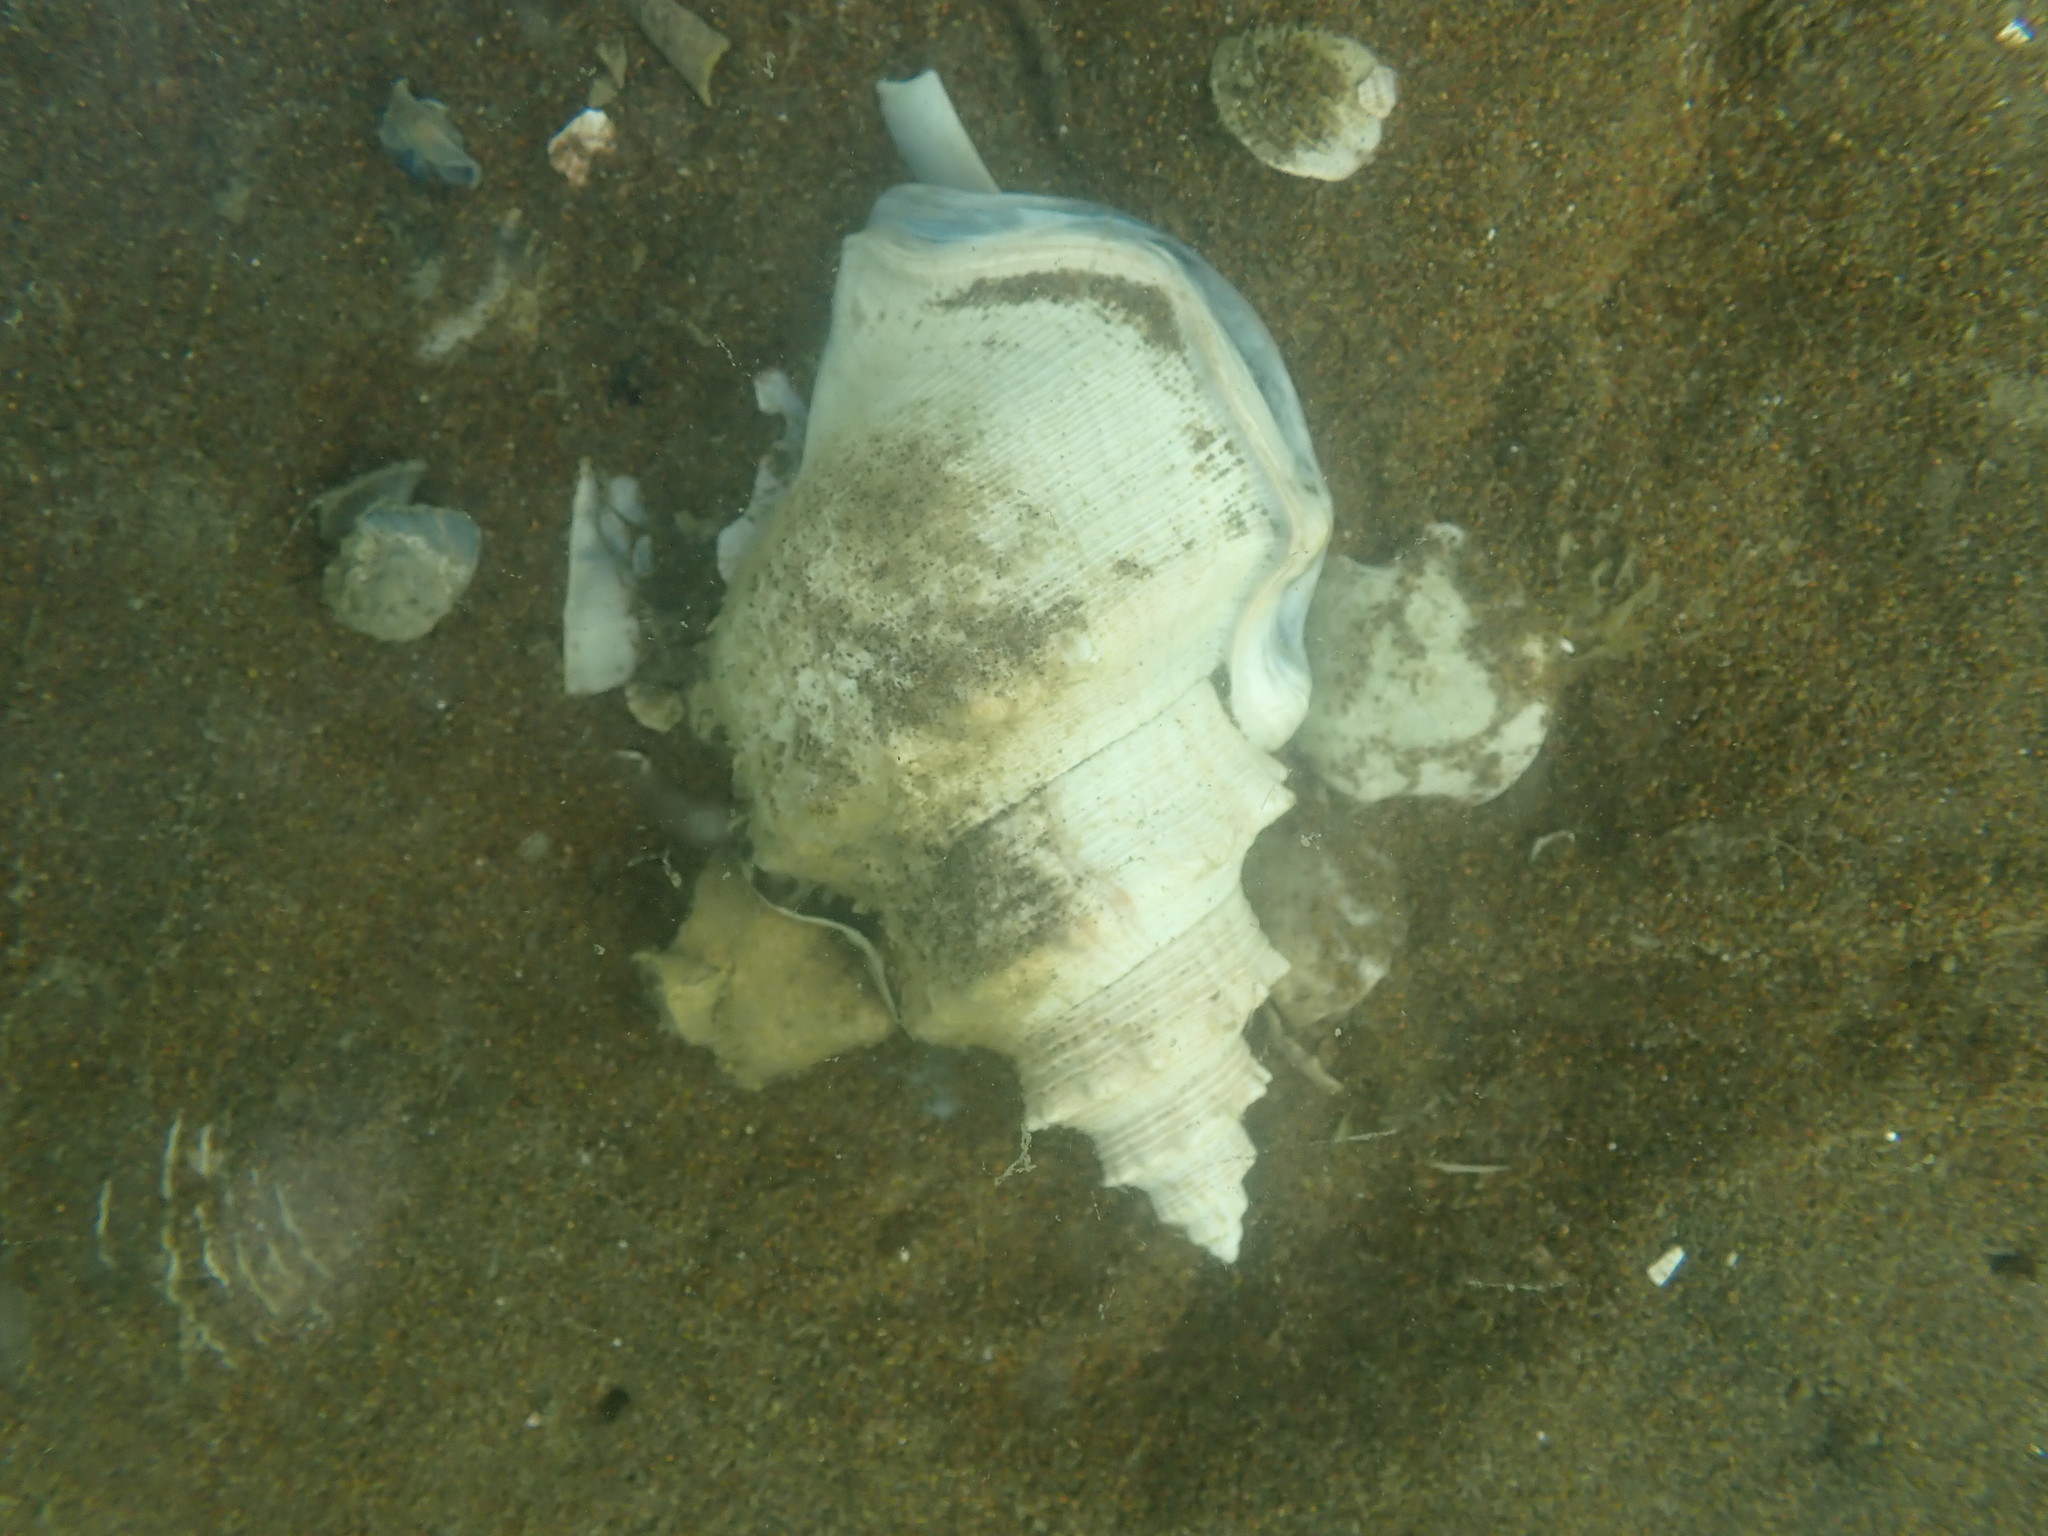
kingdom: Animalia
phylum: Mollusca
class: Gastropoda
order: Littorinimorpha
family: Struthiolariidae
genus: Struthiolaria
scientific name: Struthiolaria papulosa
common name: Large ostrich foot
